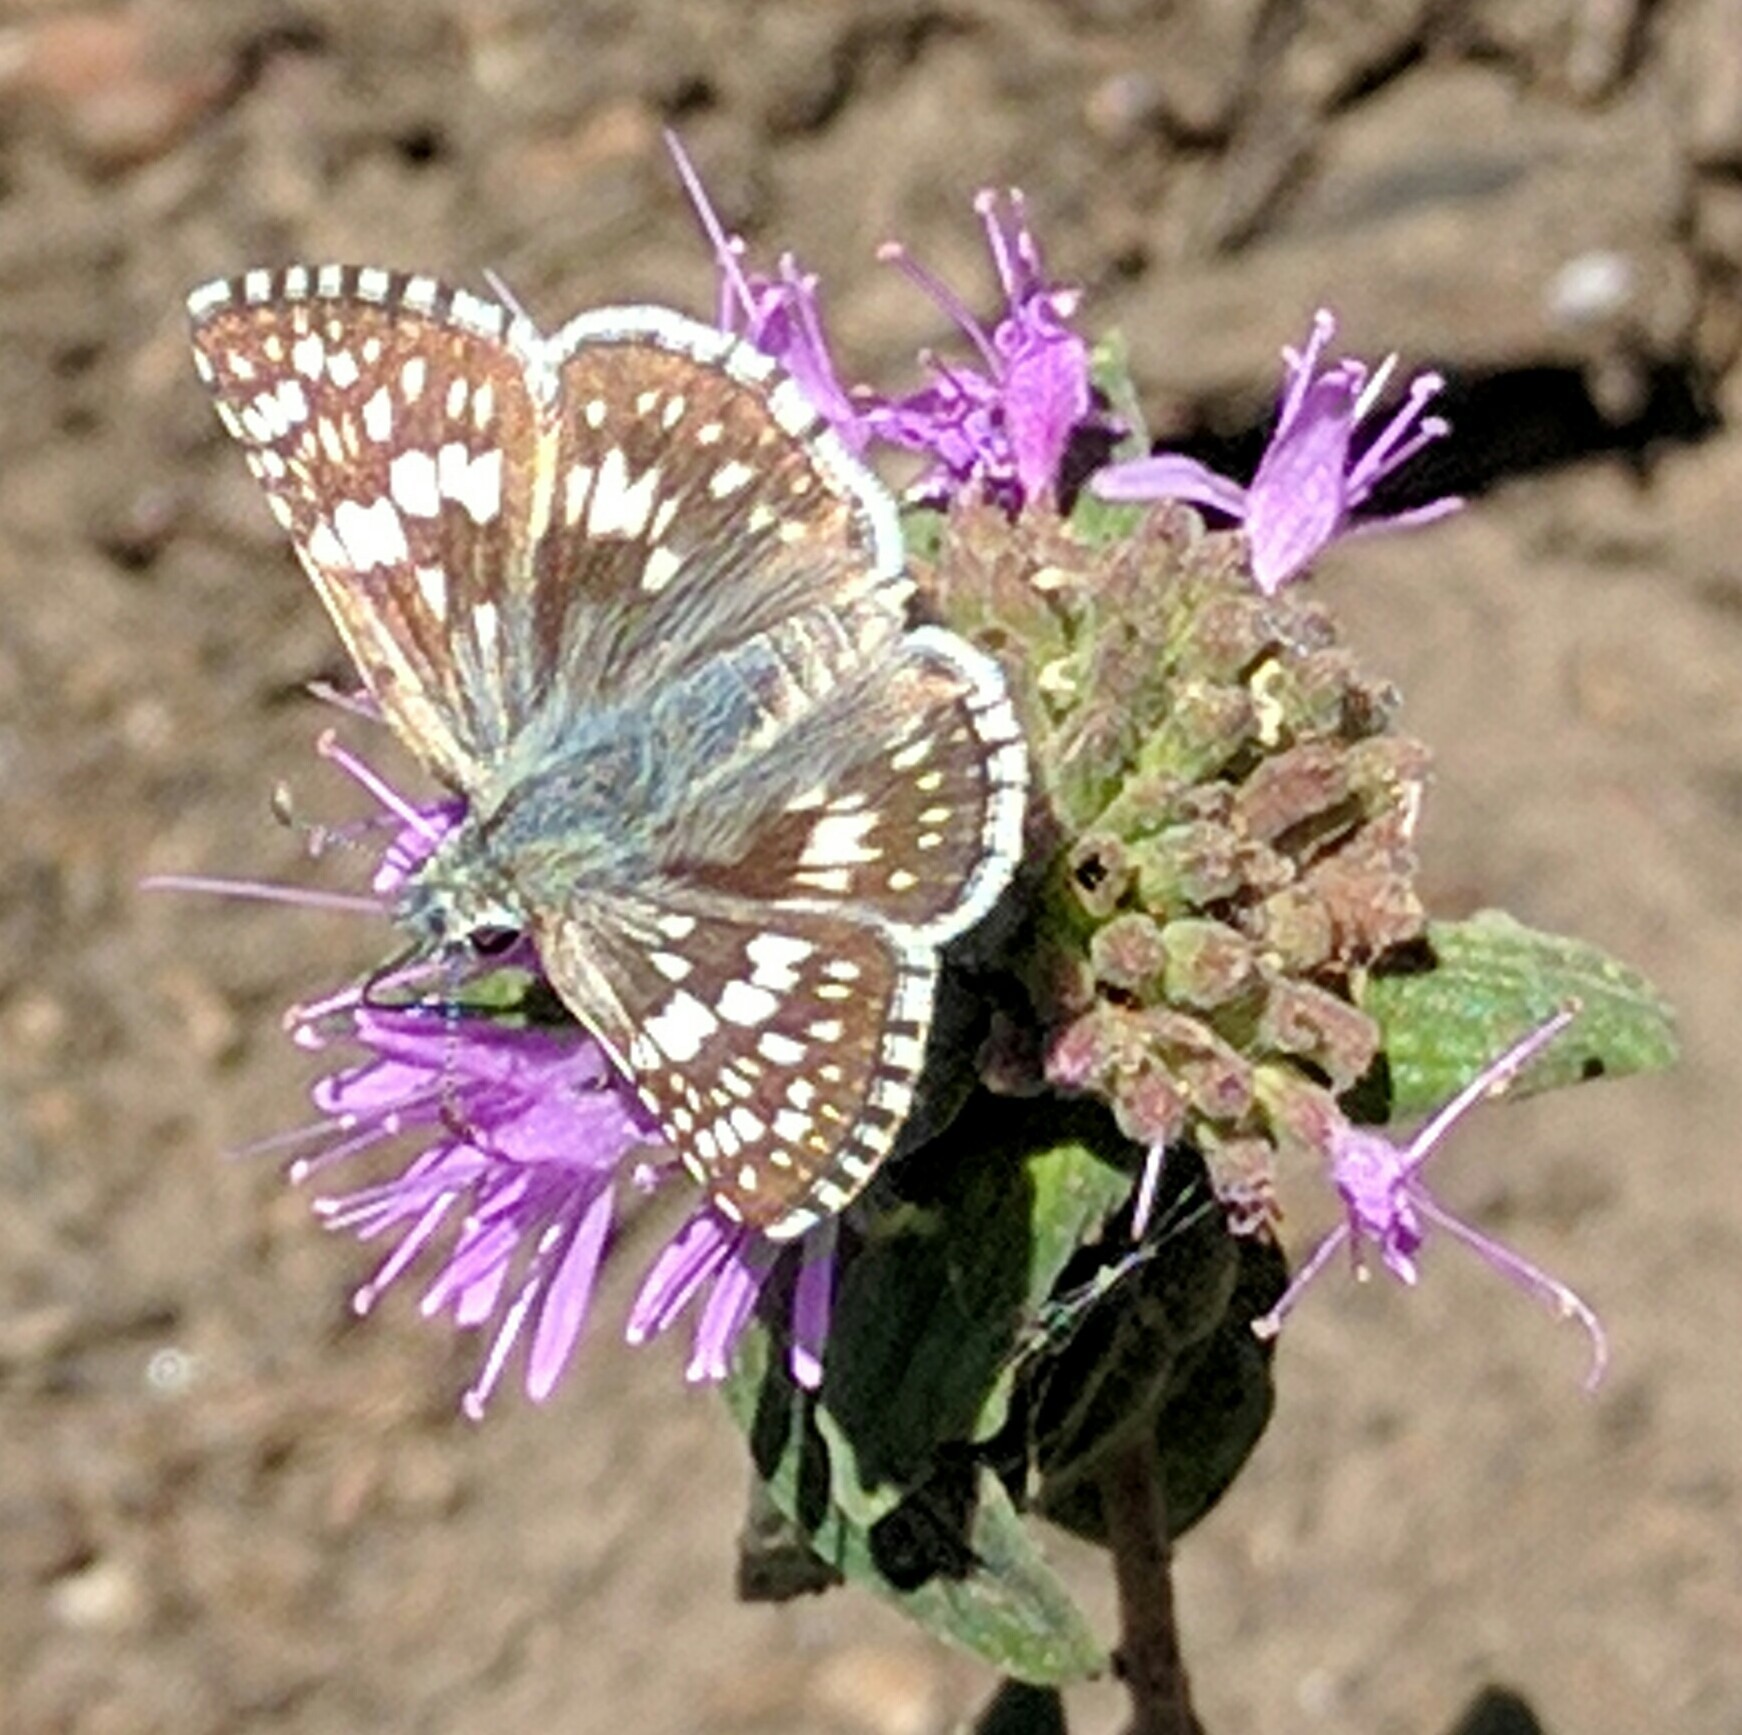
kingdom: Animalia
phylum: Arthropoda
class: Insecta
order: Lepidoptera
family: Hesperiidae
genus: Burnsius
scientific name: Burnsius communis
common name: Common checkered-skipper
